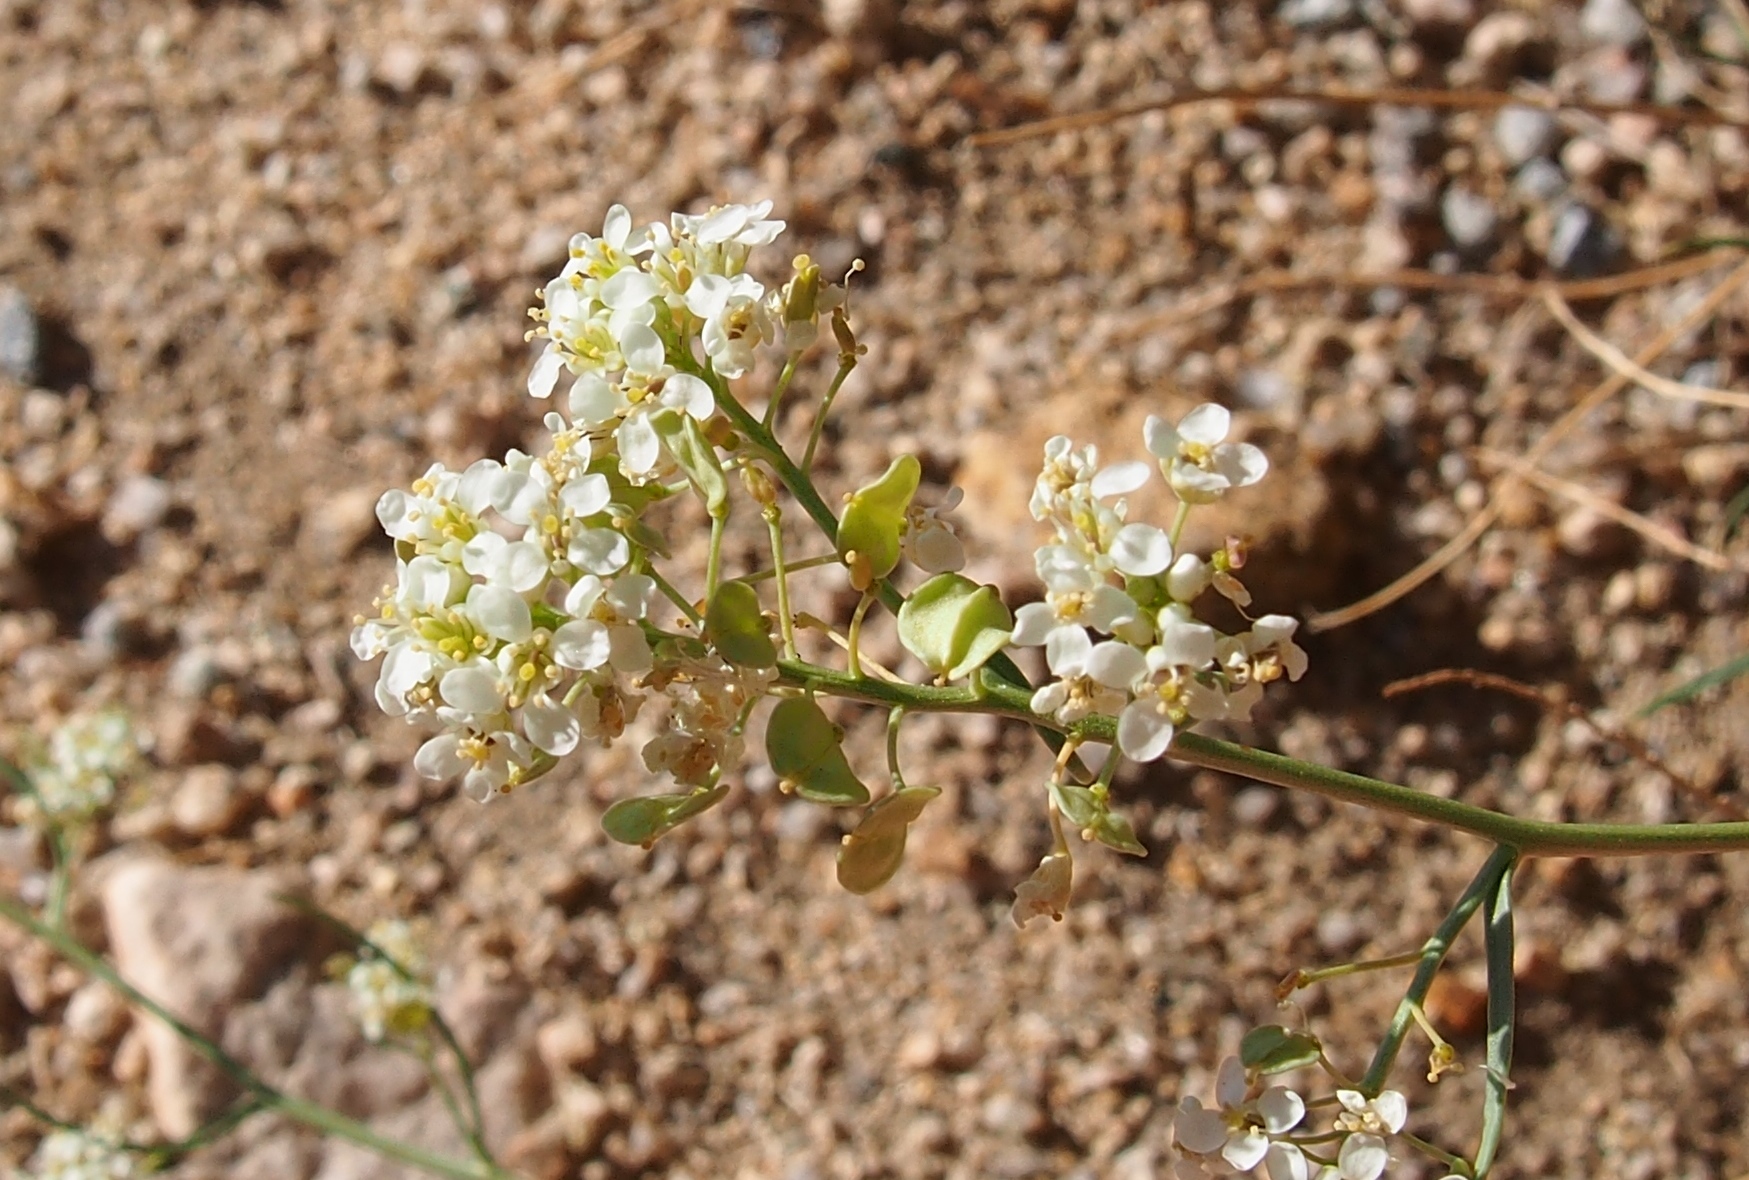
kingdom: Plantae
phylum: Tracheophyta
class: Magnoliopsida
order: Brassicales
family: Brassicaceae
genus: Lepidium
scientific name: Lepidium fremontii
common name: Fremont's pepperwort
